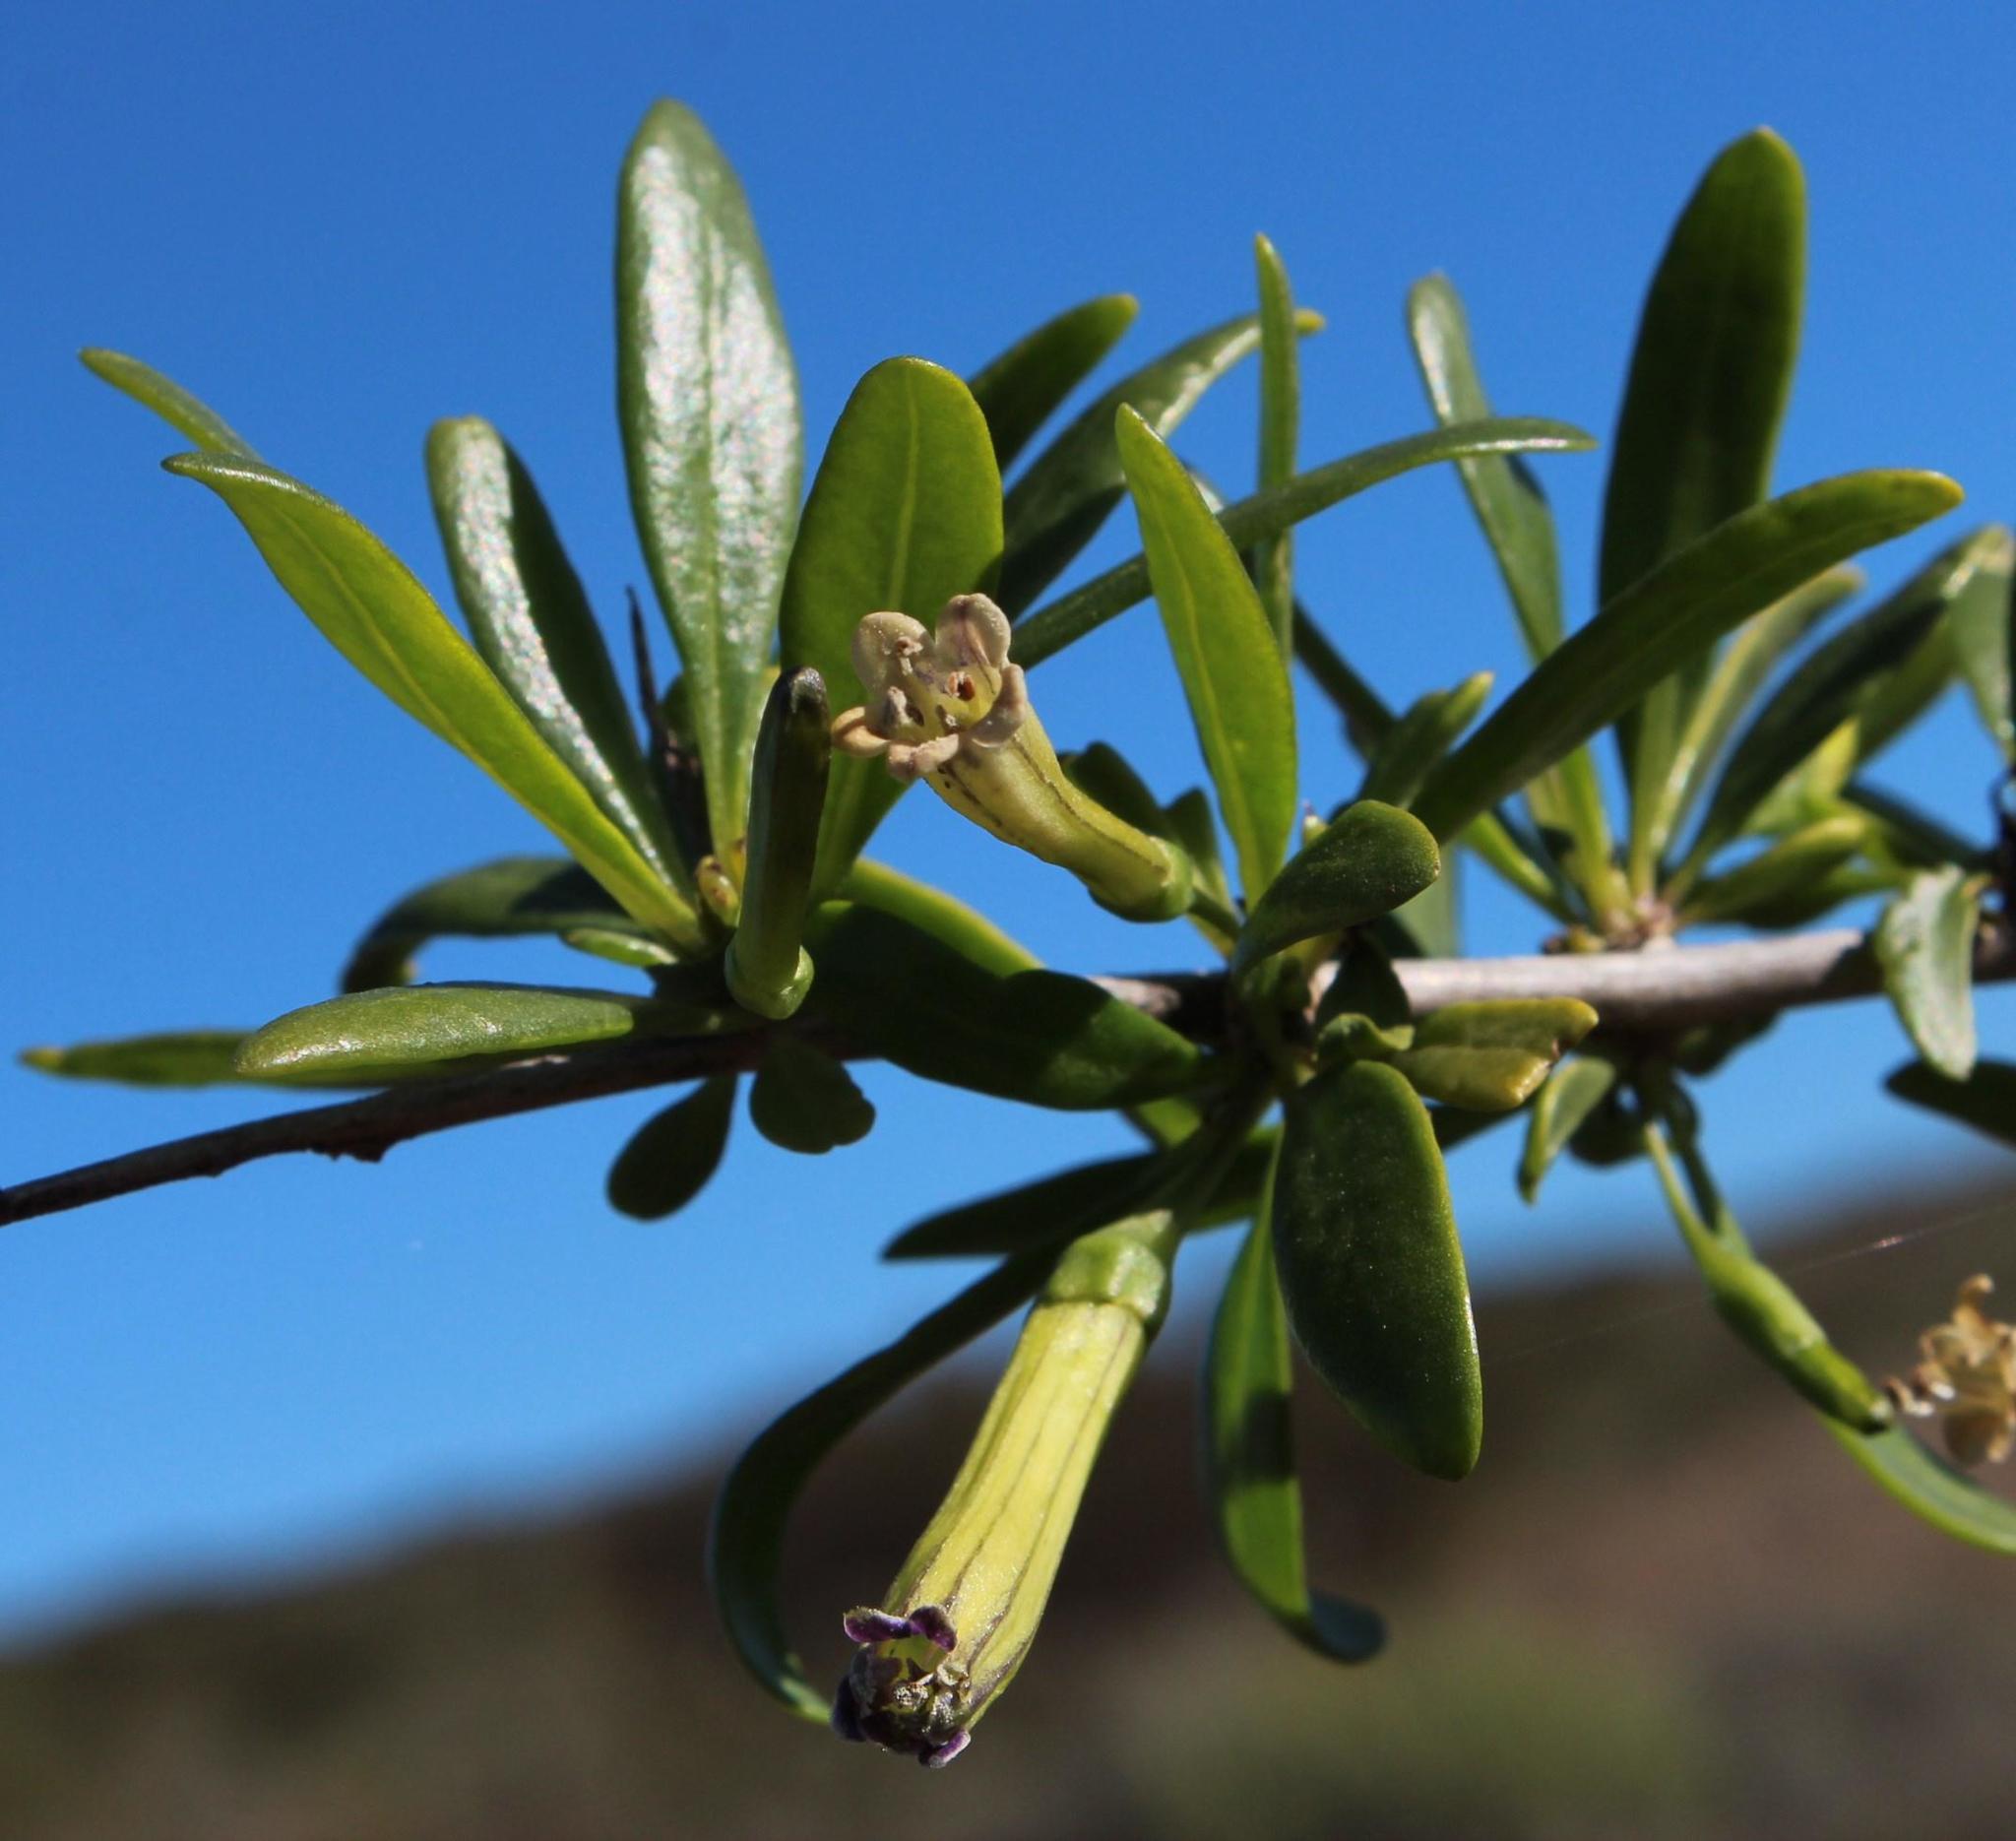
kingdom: Plantae
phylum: Tracheophyta
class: Magnoliopsida
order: Solanales
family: Solanaceae
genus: Lycium
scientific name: Lycium oxycarpum
